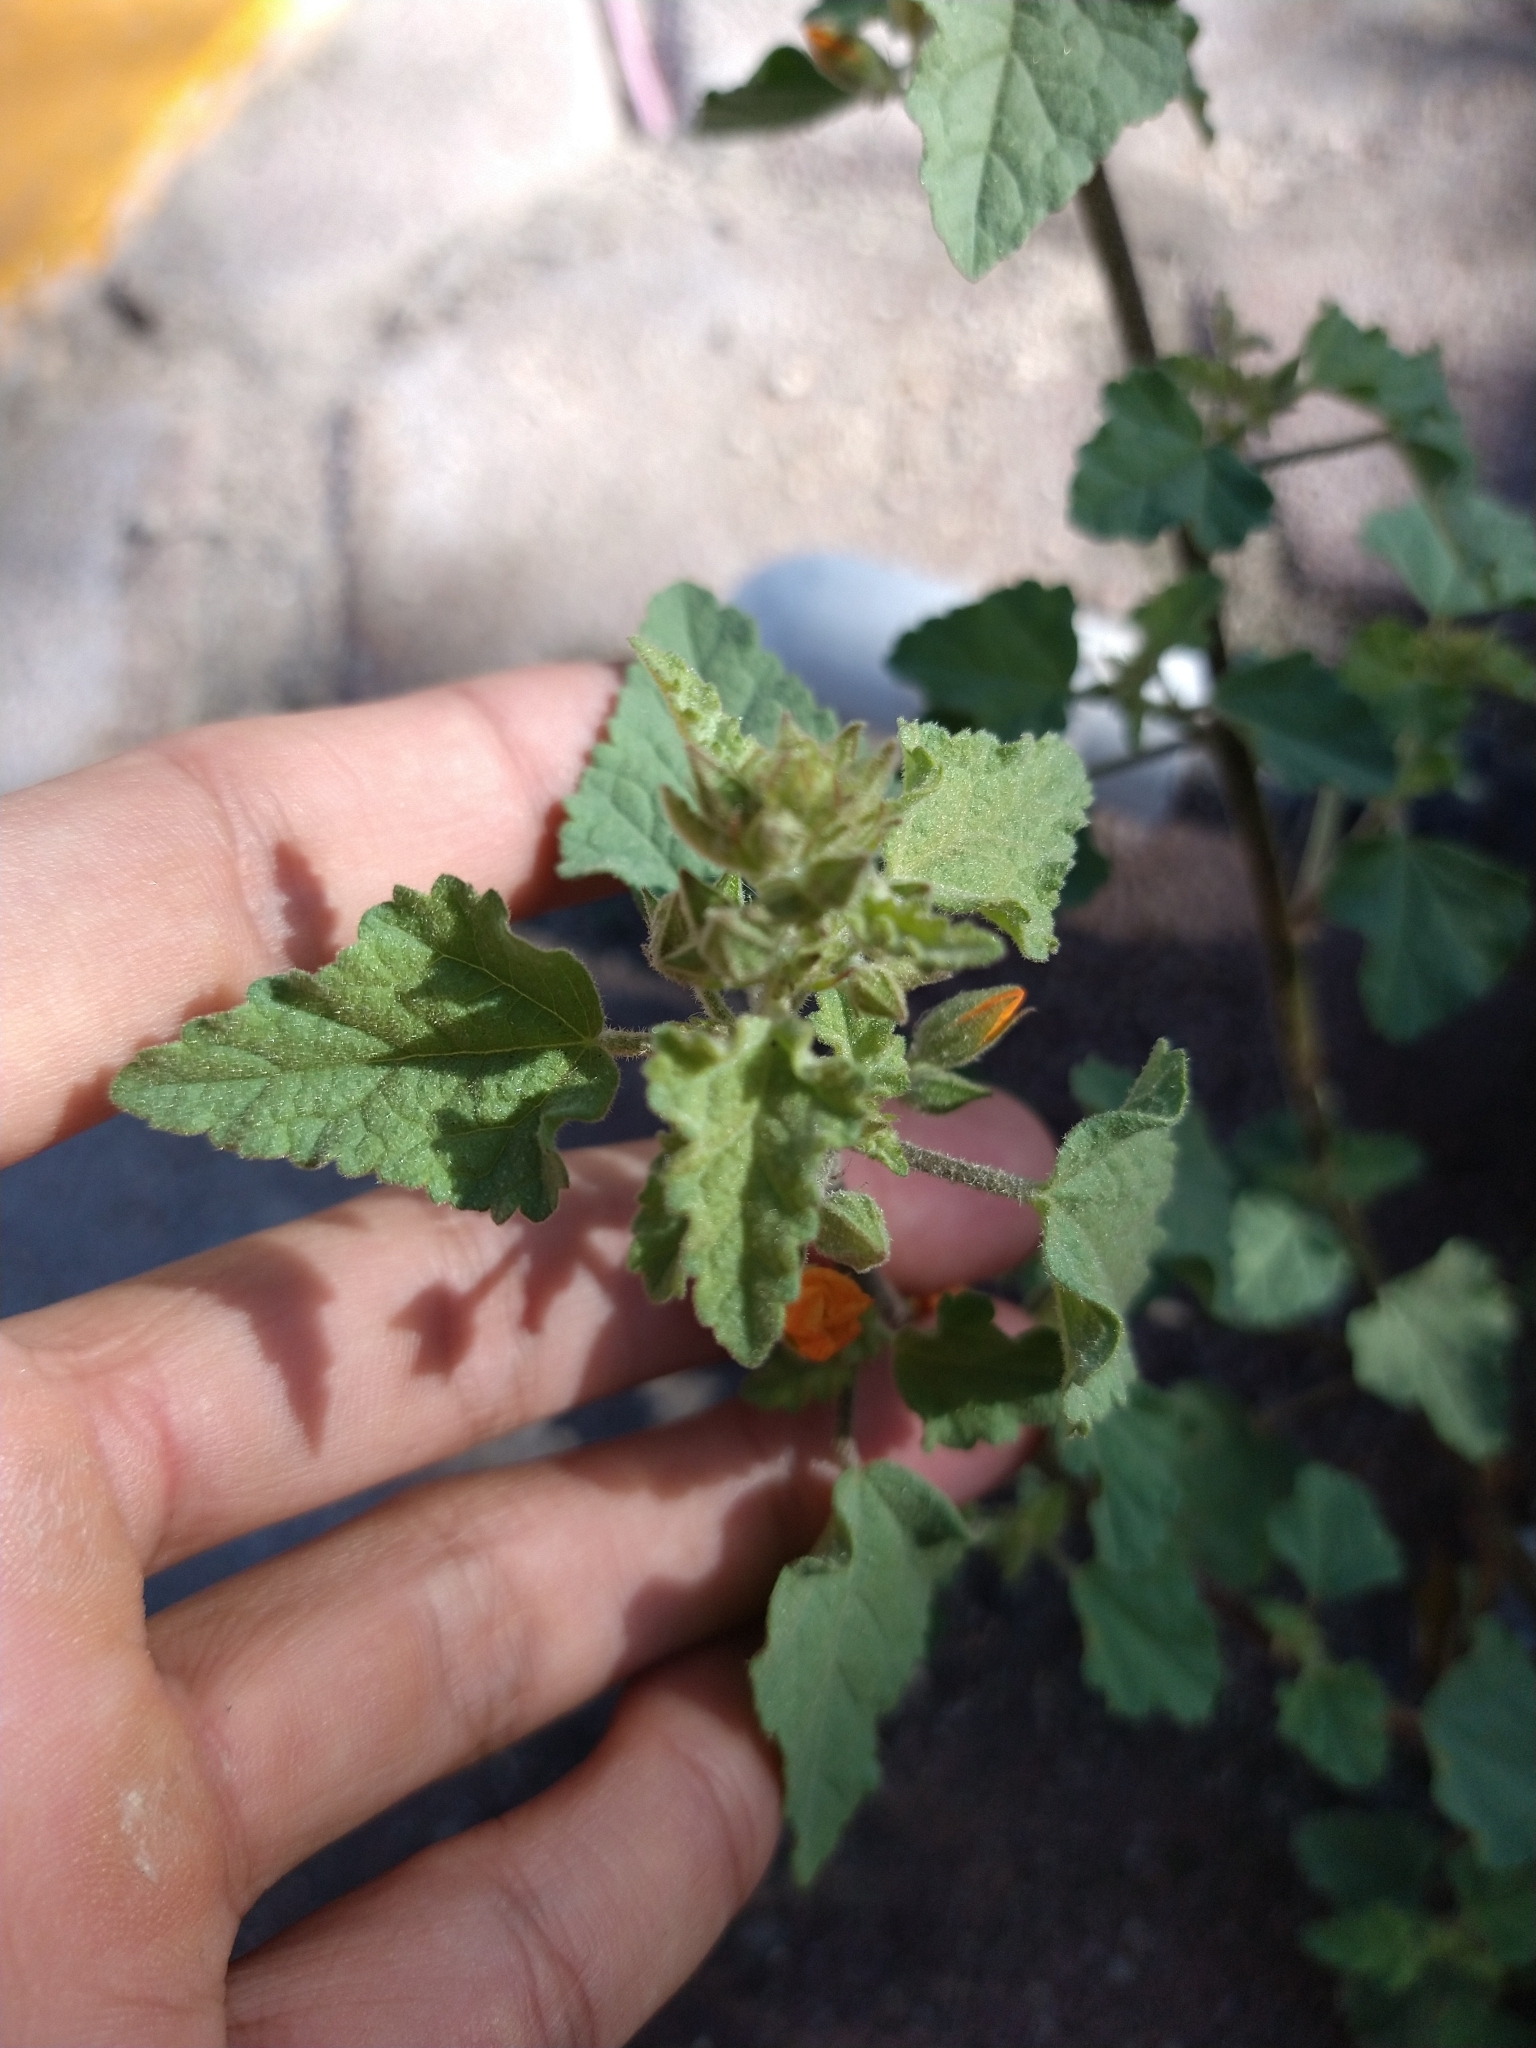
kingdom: Plantae
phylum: Tracheophyta
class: Magnoliopsida
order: Malvales
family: Malvaceae
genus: Sphaeralcea
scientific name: Sphaeralcea coulteri
